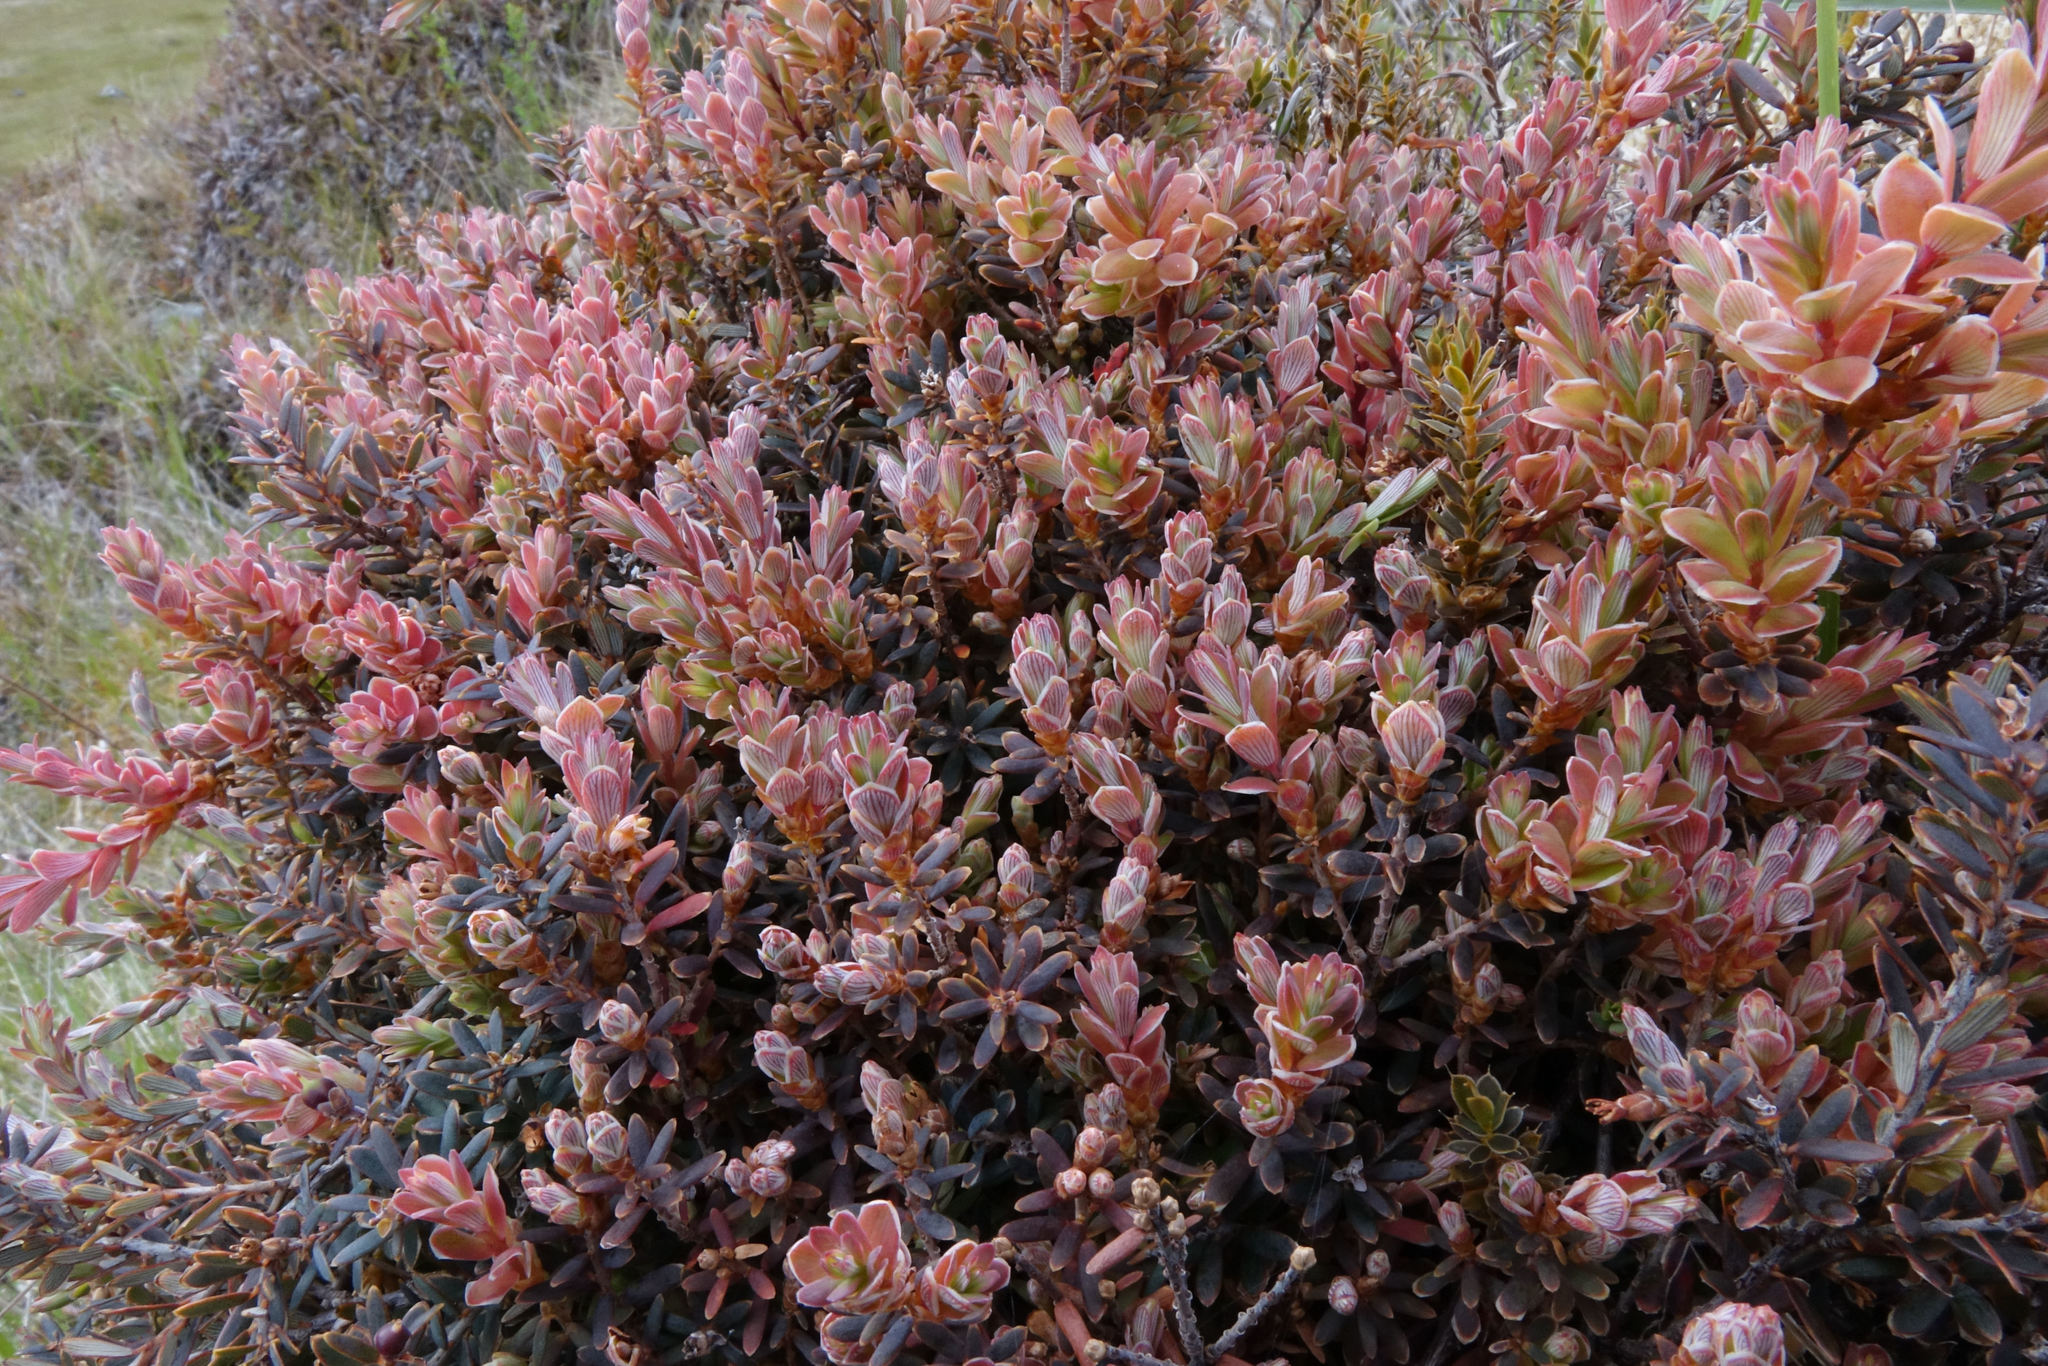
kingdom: Plantae
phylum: Tracheophyta
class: Magnoliopsida
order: Ericales
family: Ericaceae
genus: Acrothamnus
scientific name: Acrothamnus colensoi
